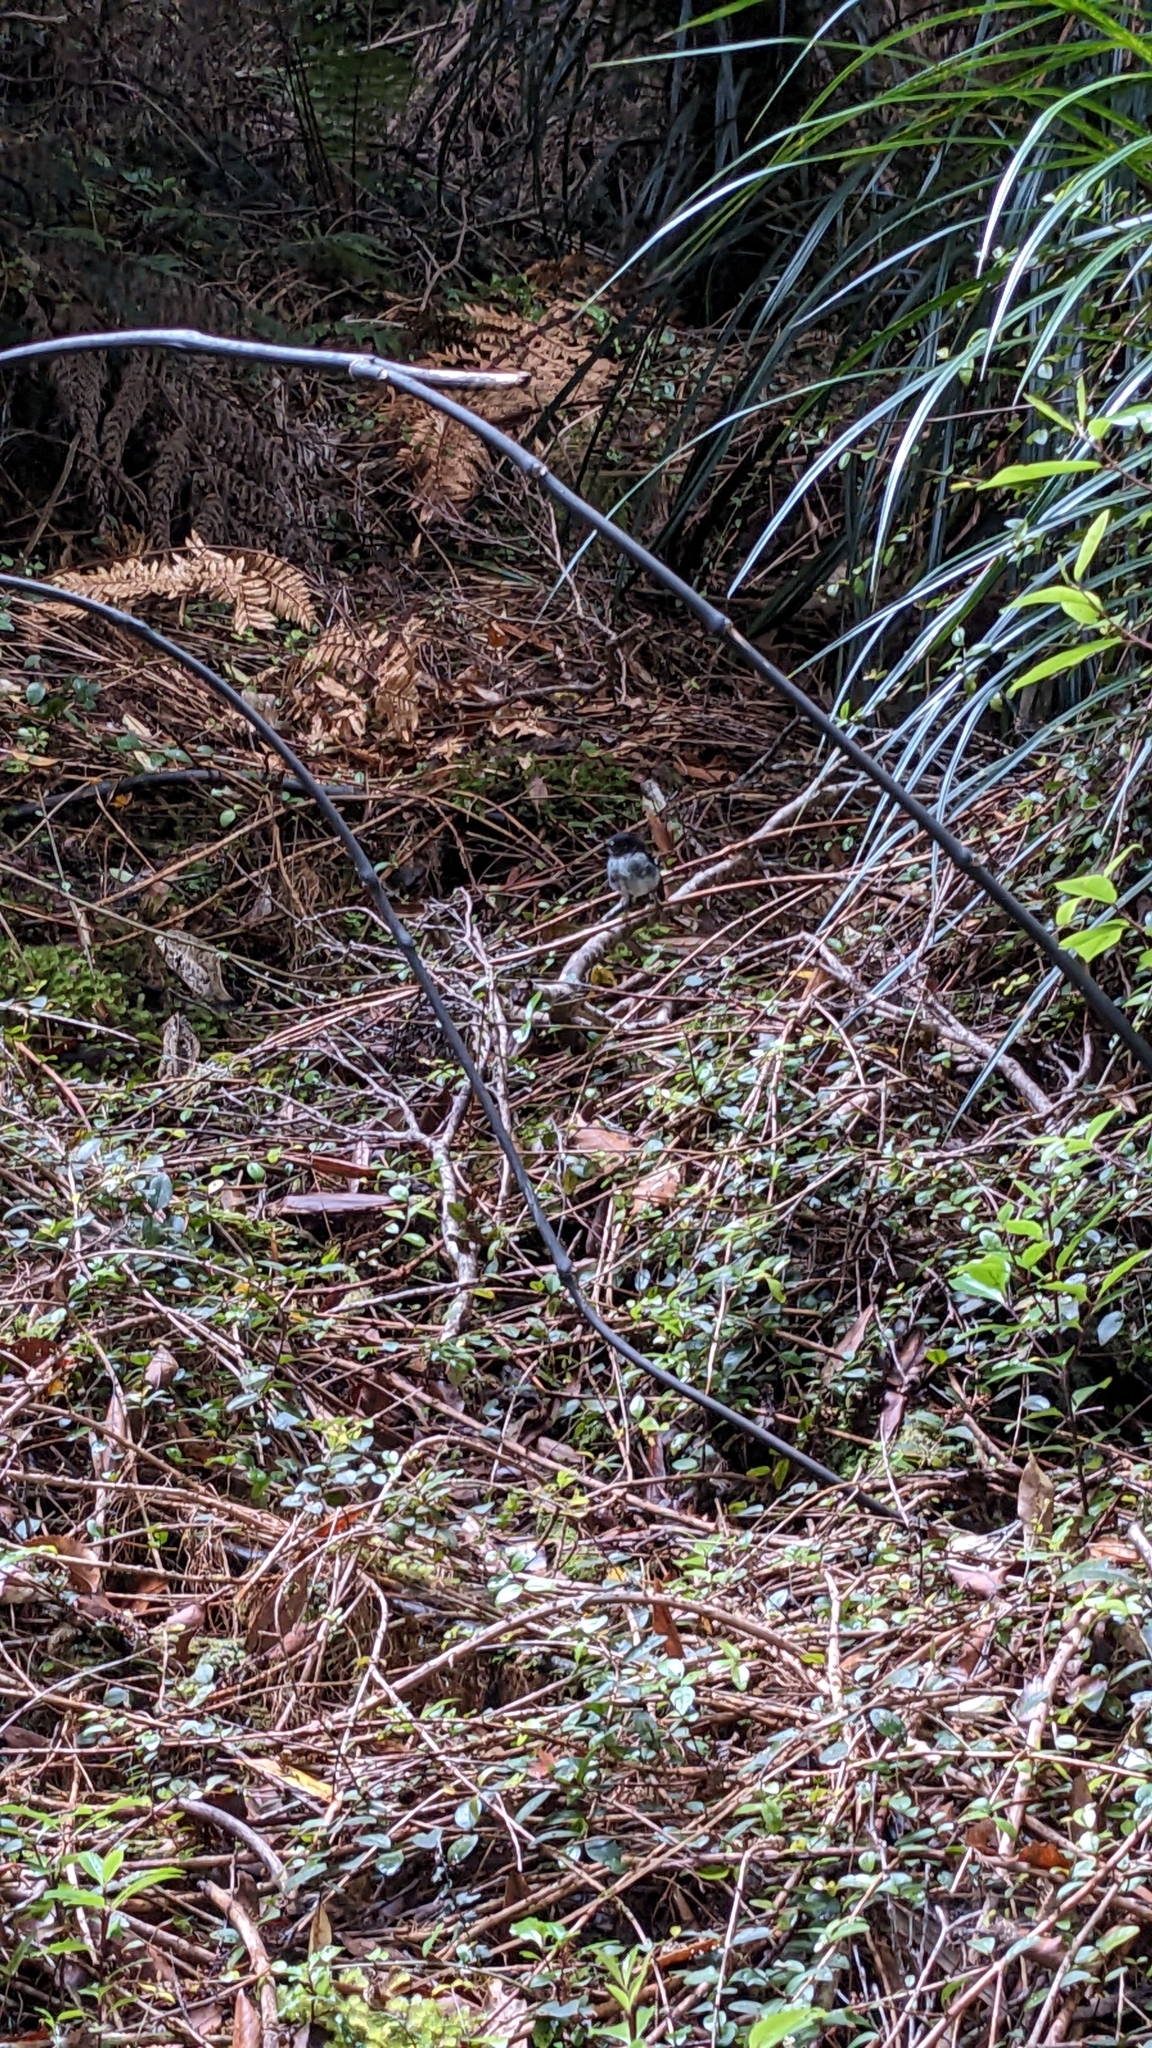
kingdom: Animalia
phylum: Chordata
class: Aves
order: Passeriformes
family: Petroicidae
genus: Petroica
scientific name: Petroica macrocephala
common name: Tomtit
